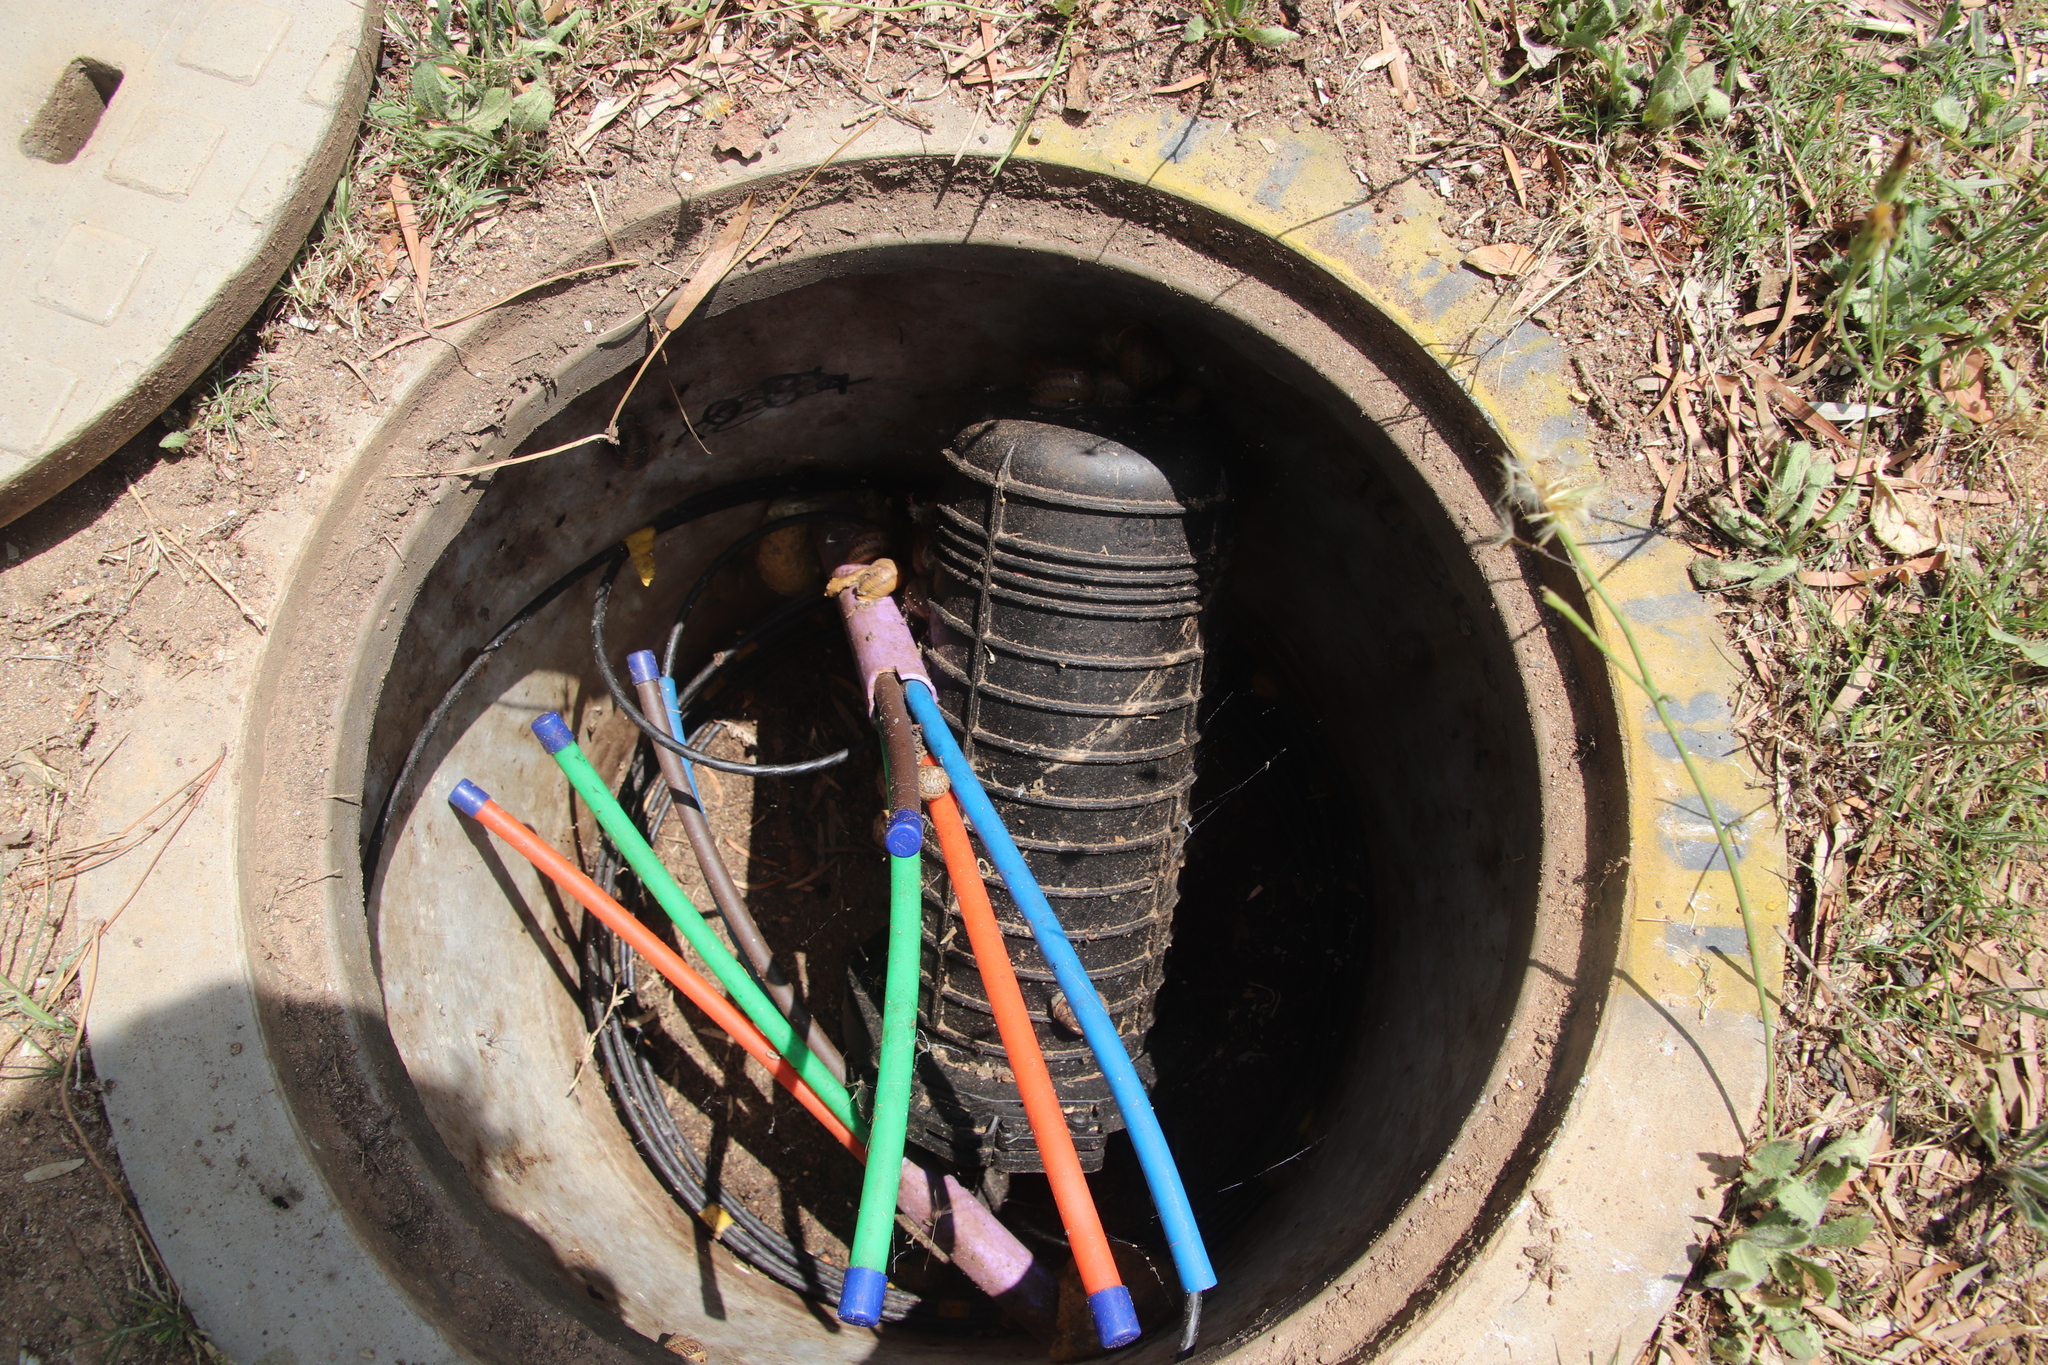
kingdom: Animalia
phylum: Mollusca
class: Gastropoda
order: Stylommatophora
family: Helicidae
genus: Cornu
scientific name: Cornu aspersum
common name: Brown garden snail
